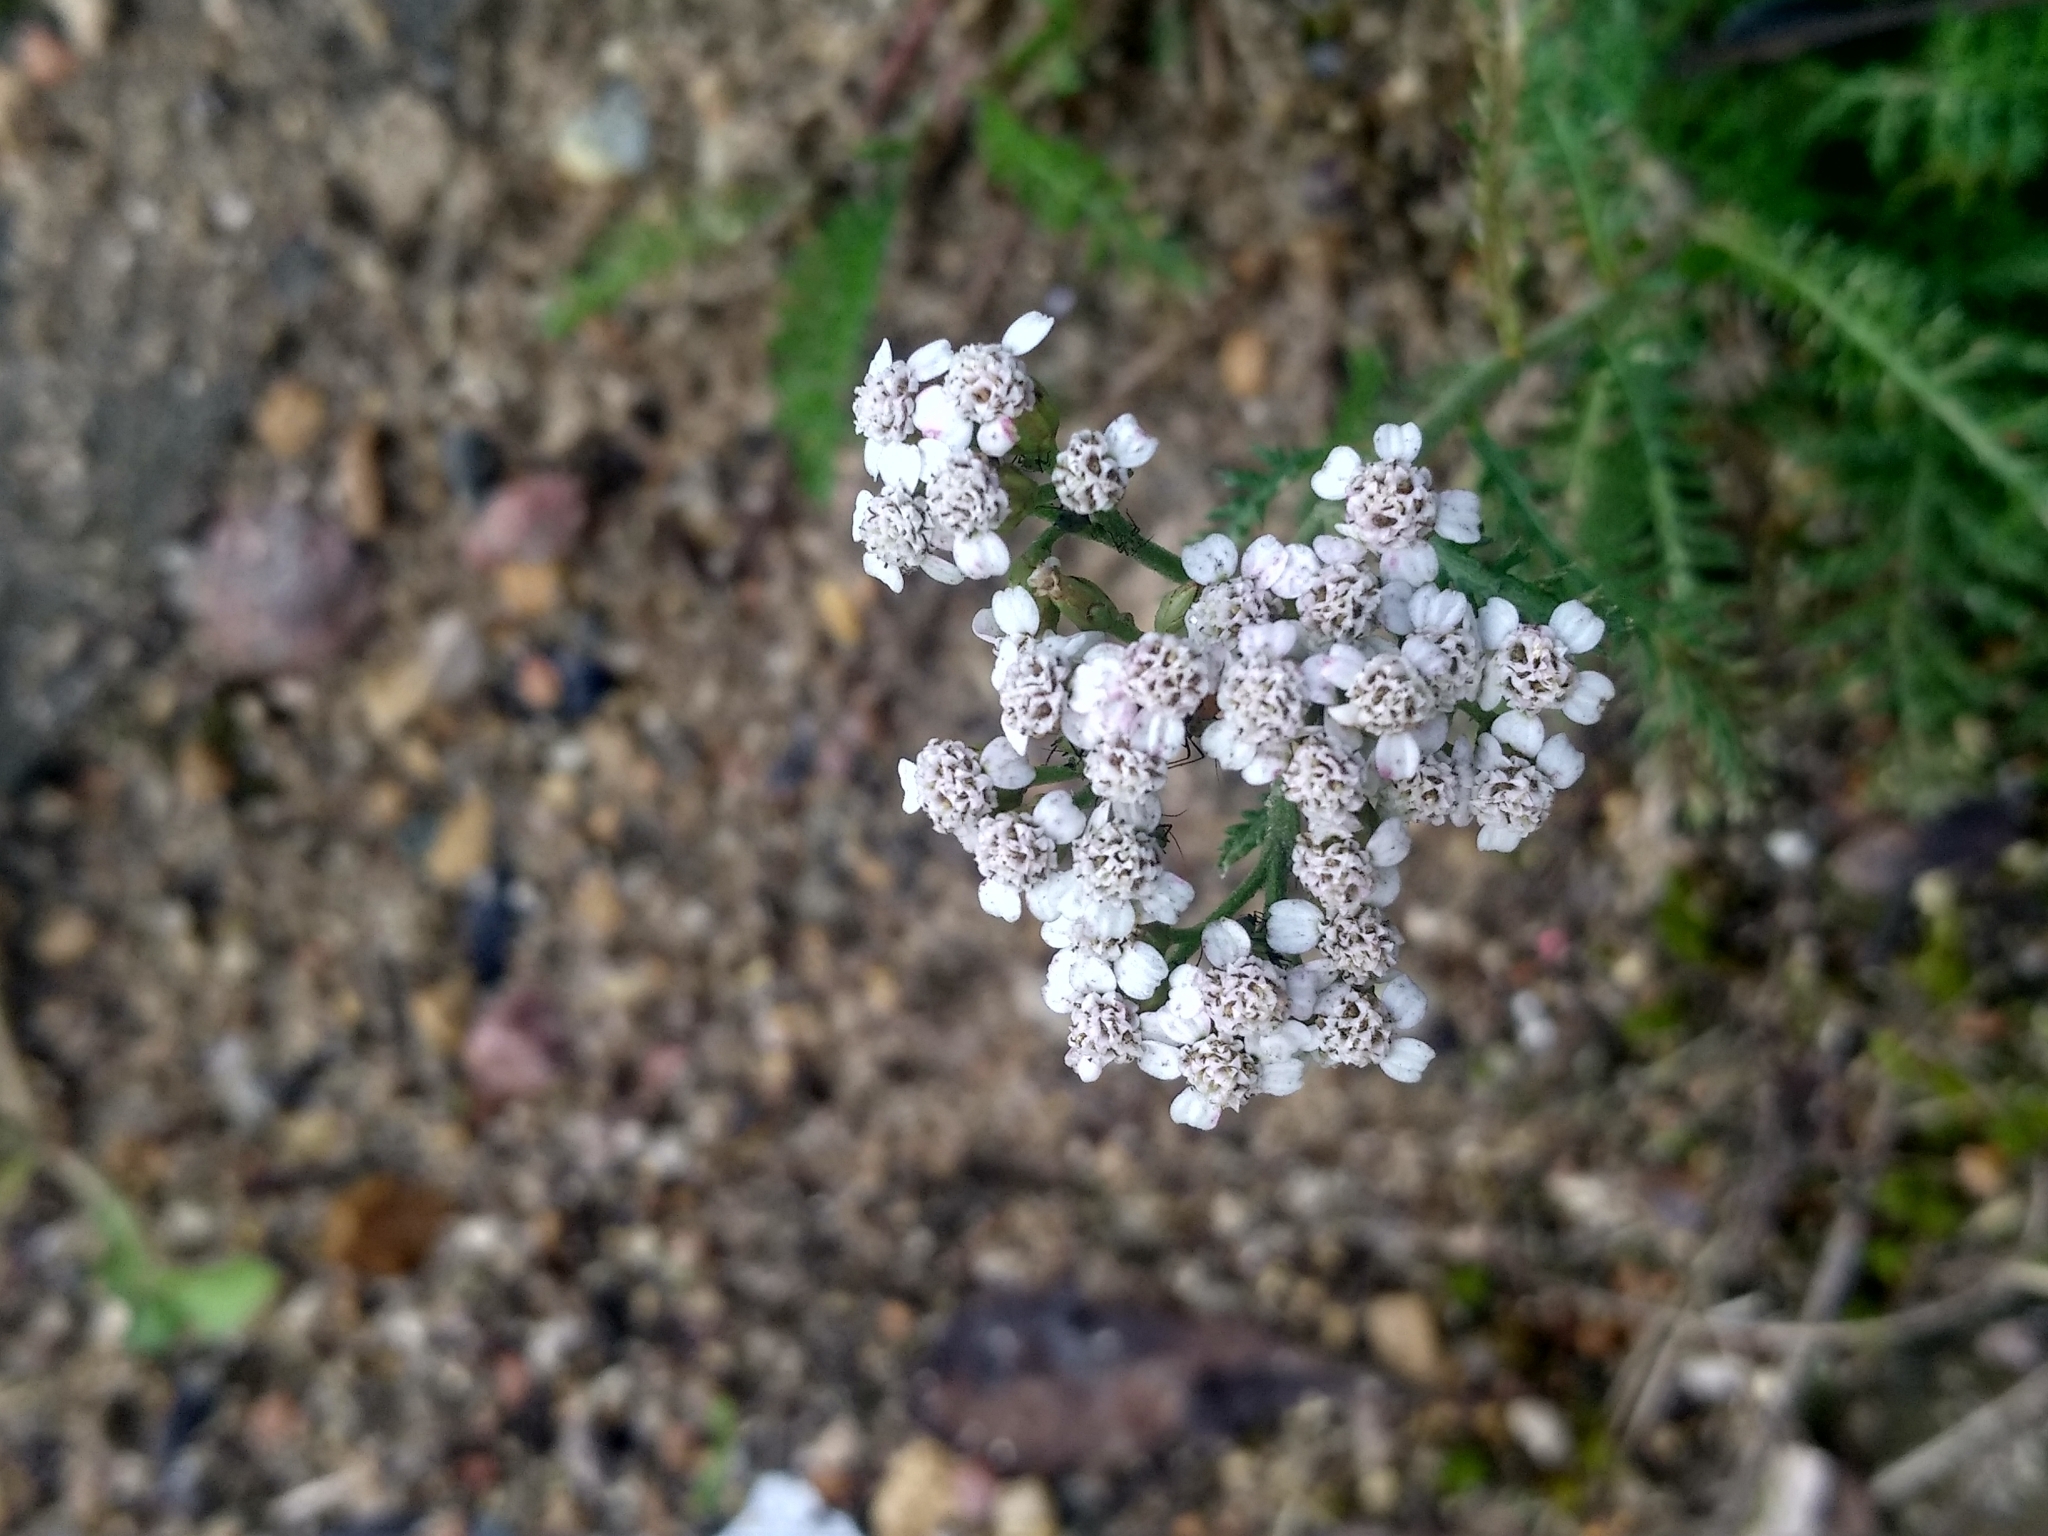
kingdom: Plantae
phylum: Tracheophyta
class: Magnoliopsida
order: Asterales
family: Asteraceae
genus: Achillea
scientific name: Achillea millefolium
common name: Yarrow
